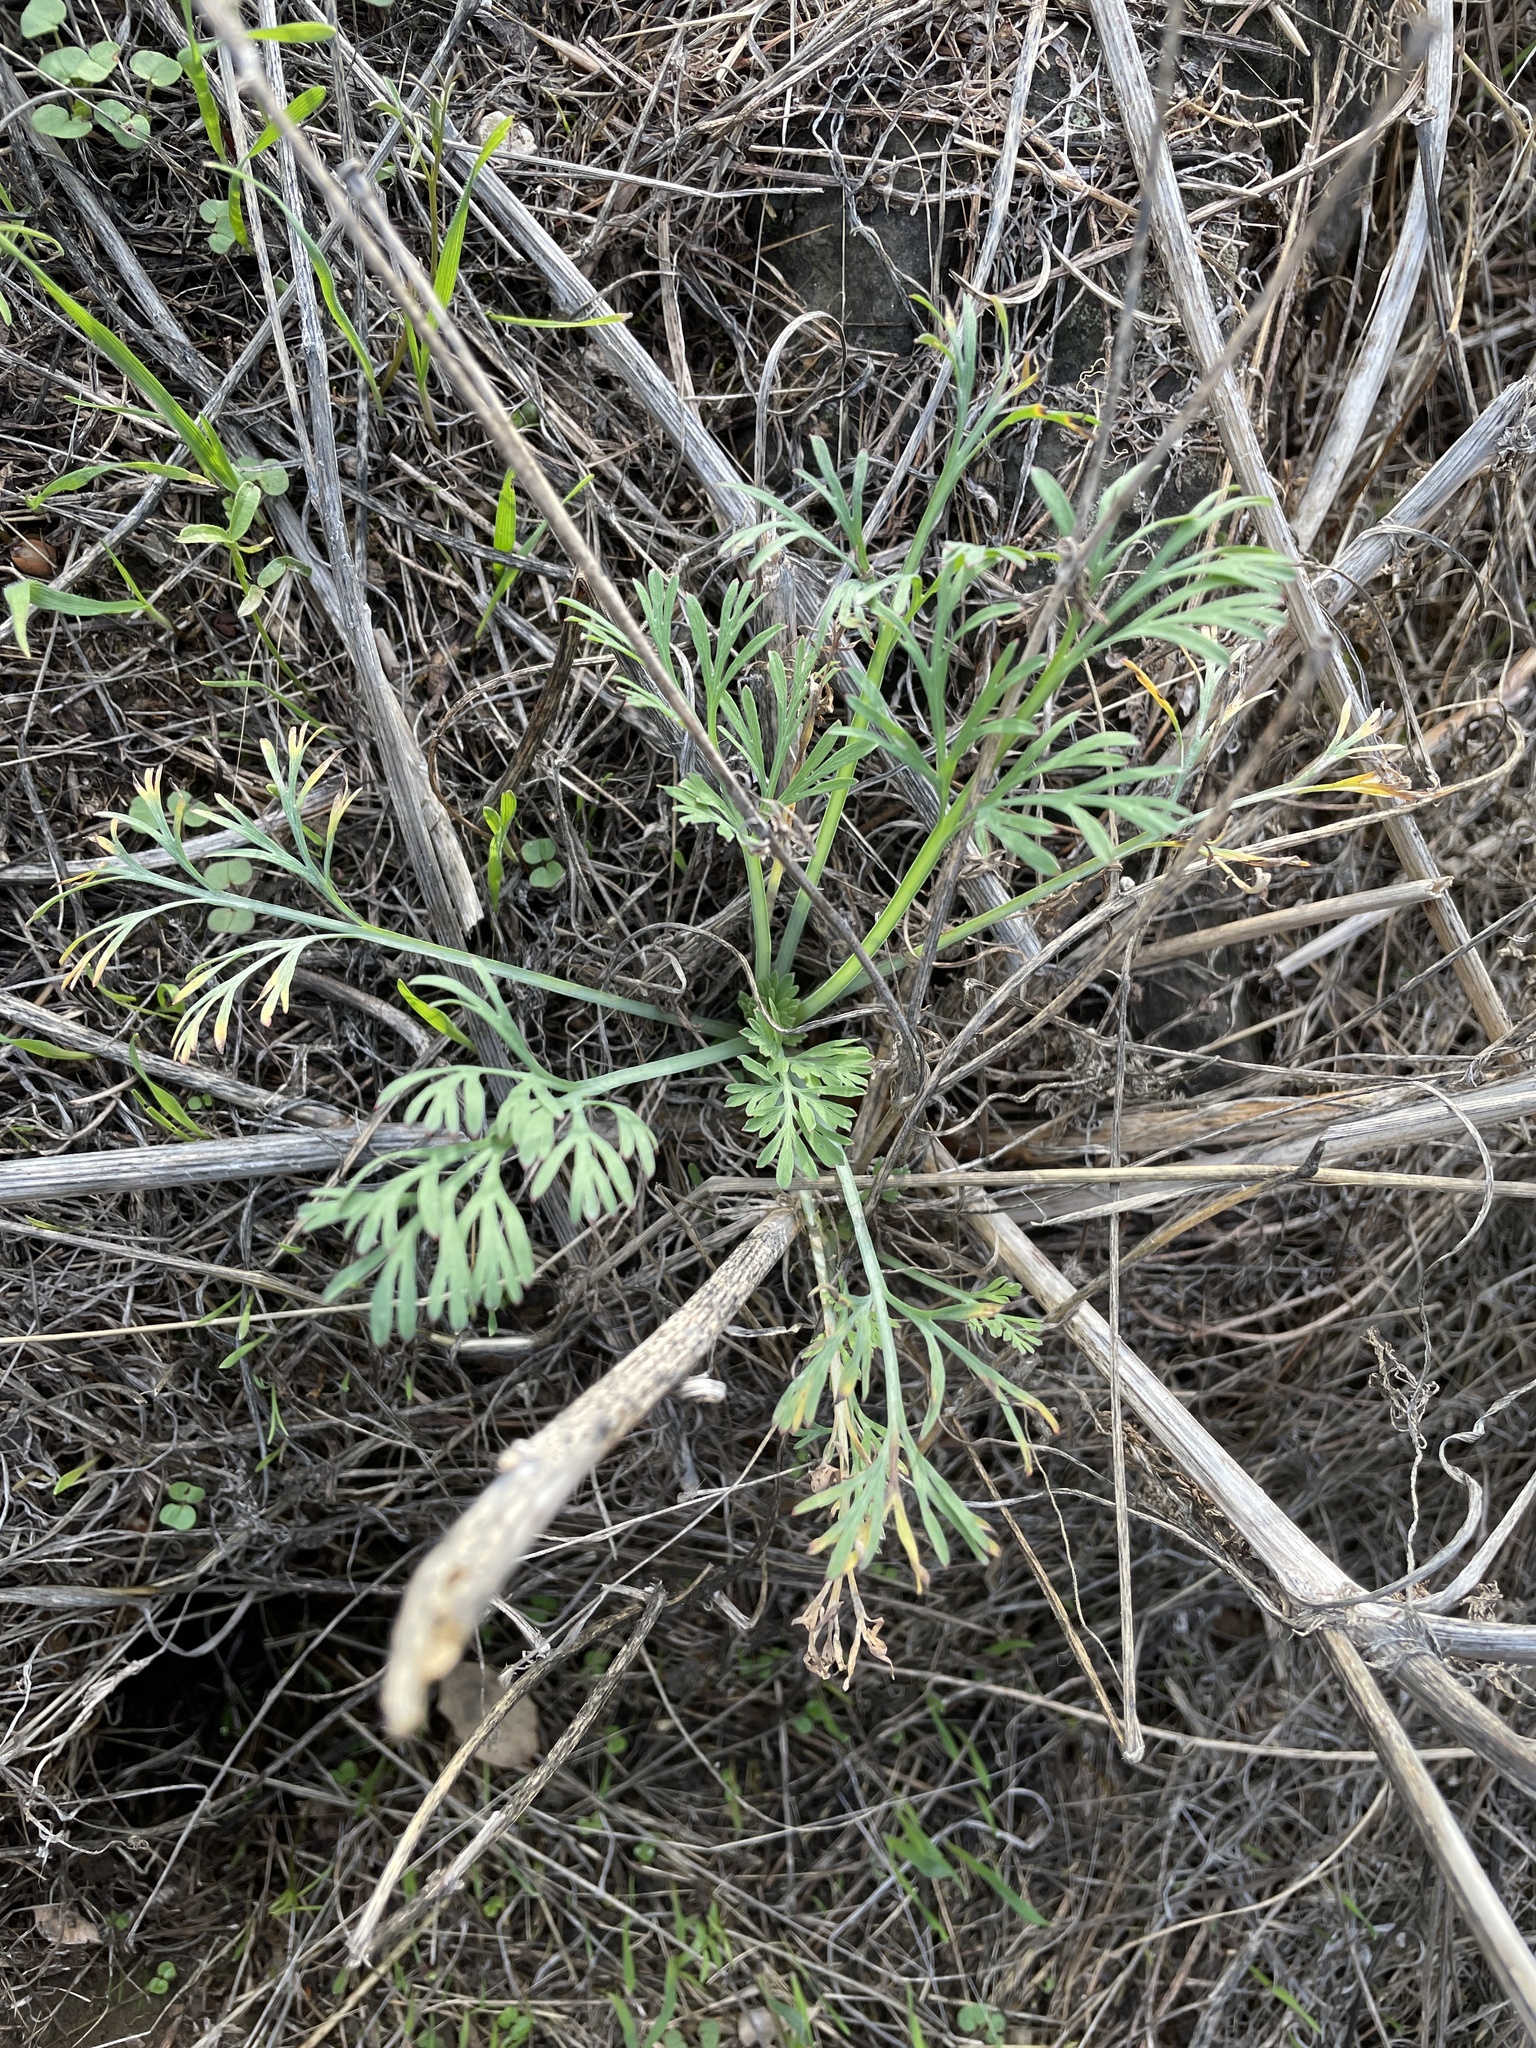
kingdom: Plantae
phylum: Tracheophyta
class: Magnoliopsida
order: Ranunculales
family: Papaveraceae
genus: Eschscholzia
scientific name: Eschscholzia californica
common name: California poppy
